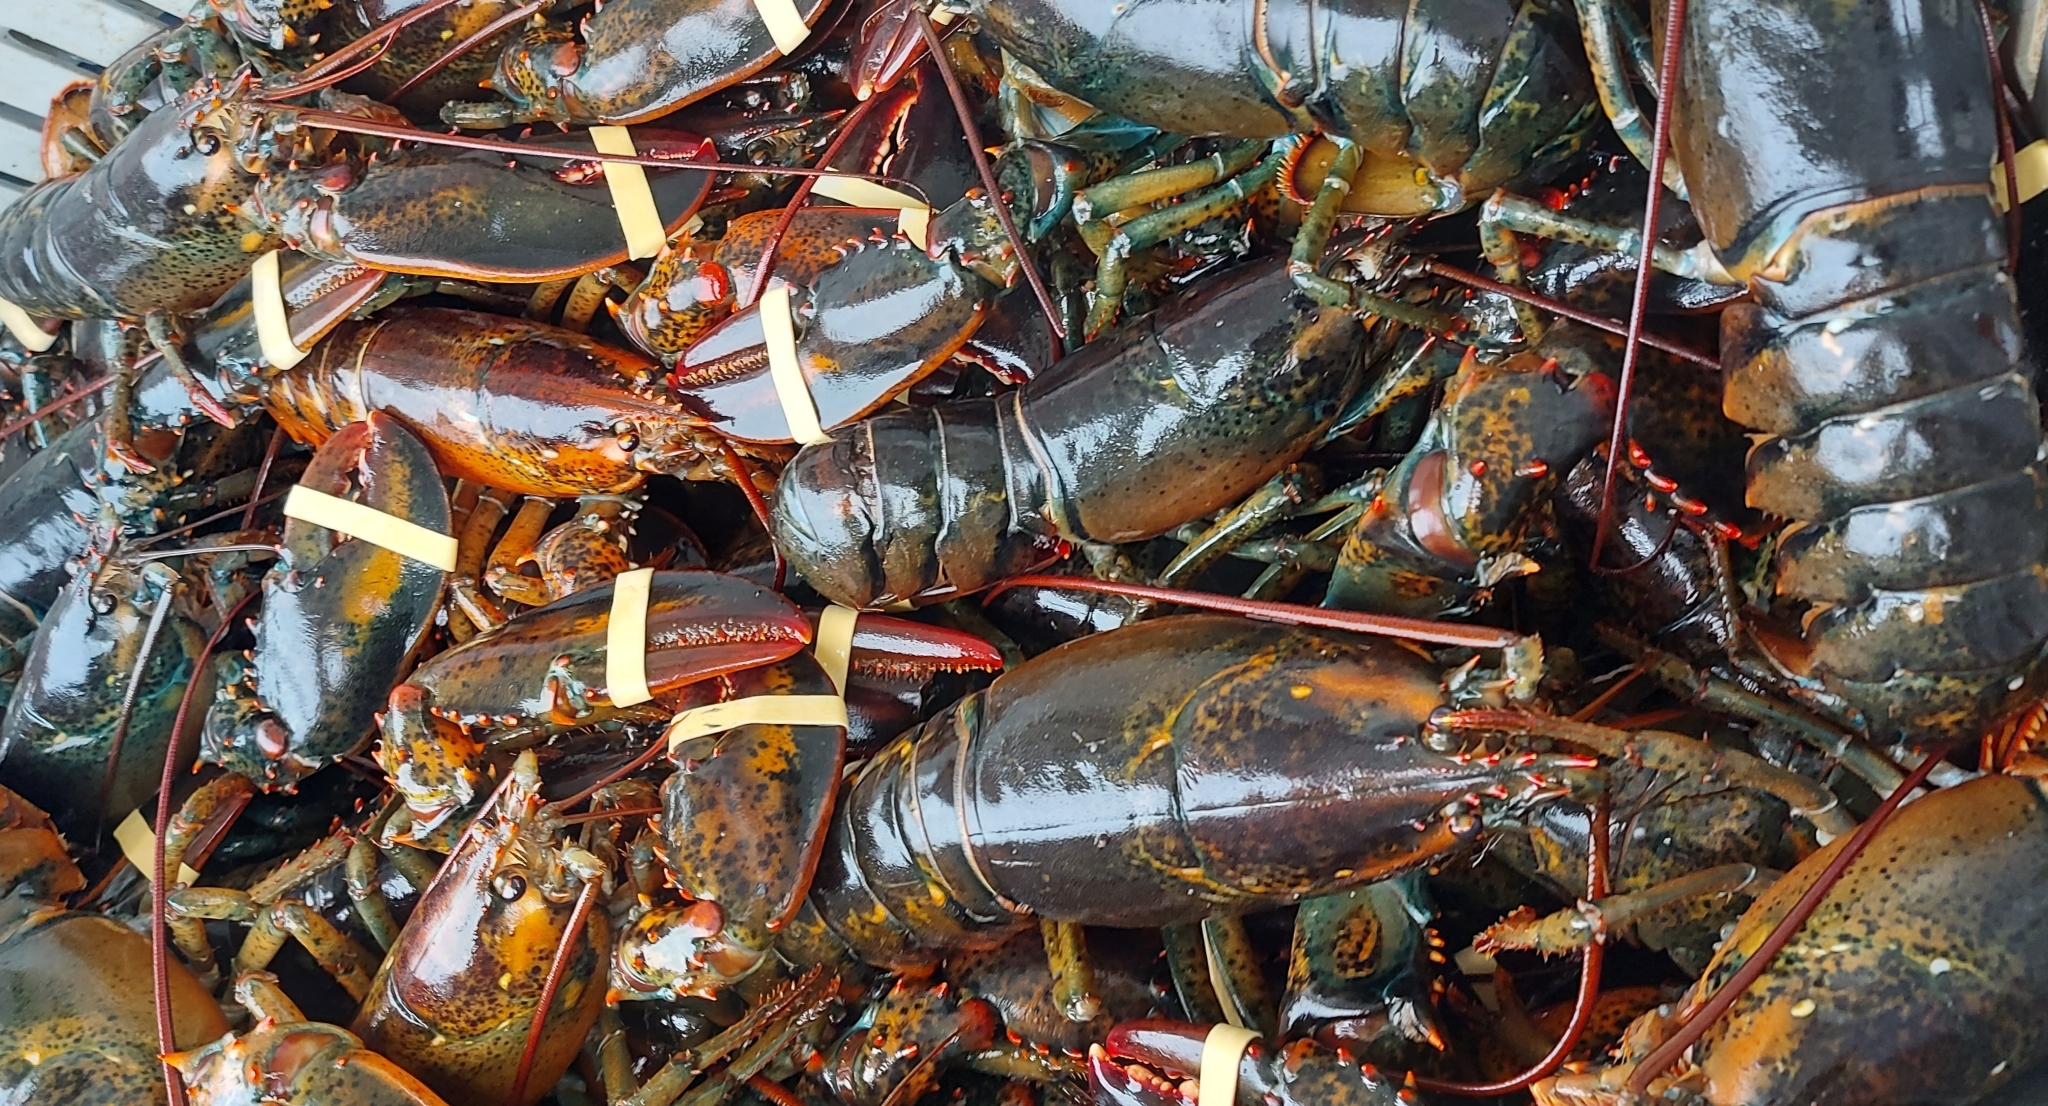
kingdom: Animalia
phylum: Arthropoda
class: Malacostraca
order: Decapoda
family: Nephropidae
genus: Homarus
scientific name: Homarus americanus
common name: American lobster
